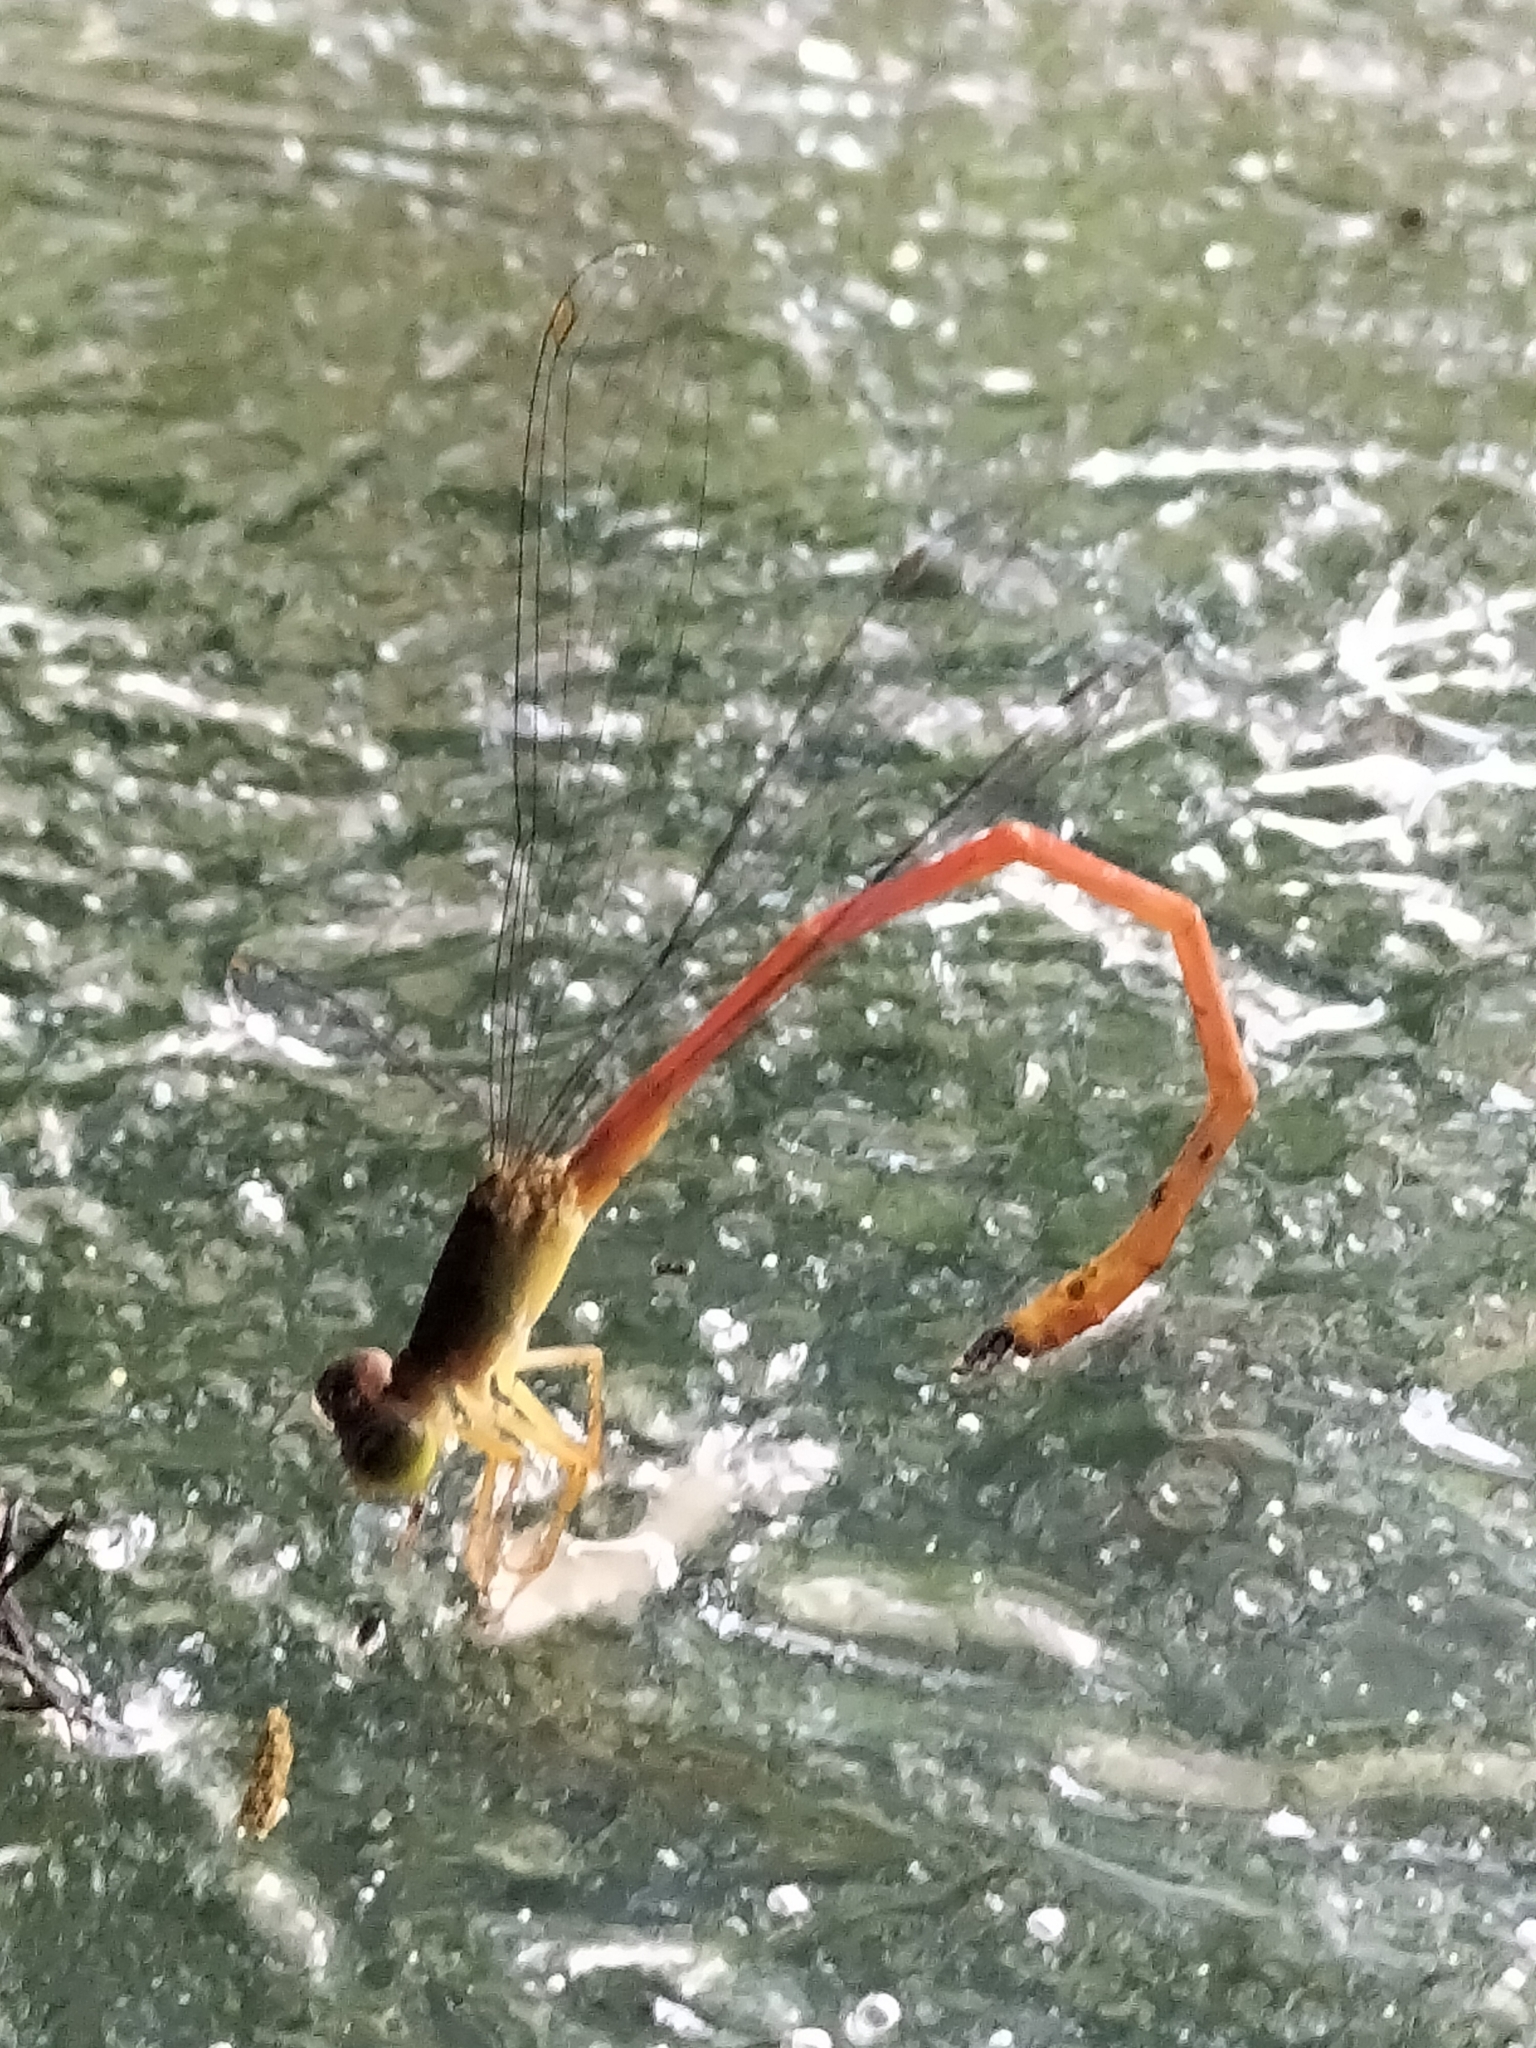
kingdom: Animalia
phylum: Arthropoda
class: Insecta
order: Odonata
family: Coenagrionidae
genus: Ceriagrion
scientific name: Ceriagrion aeruginosum
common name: Redtail
